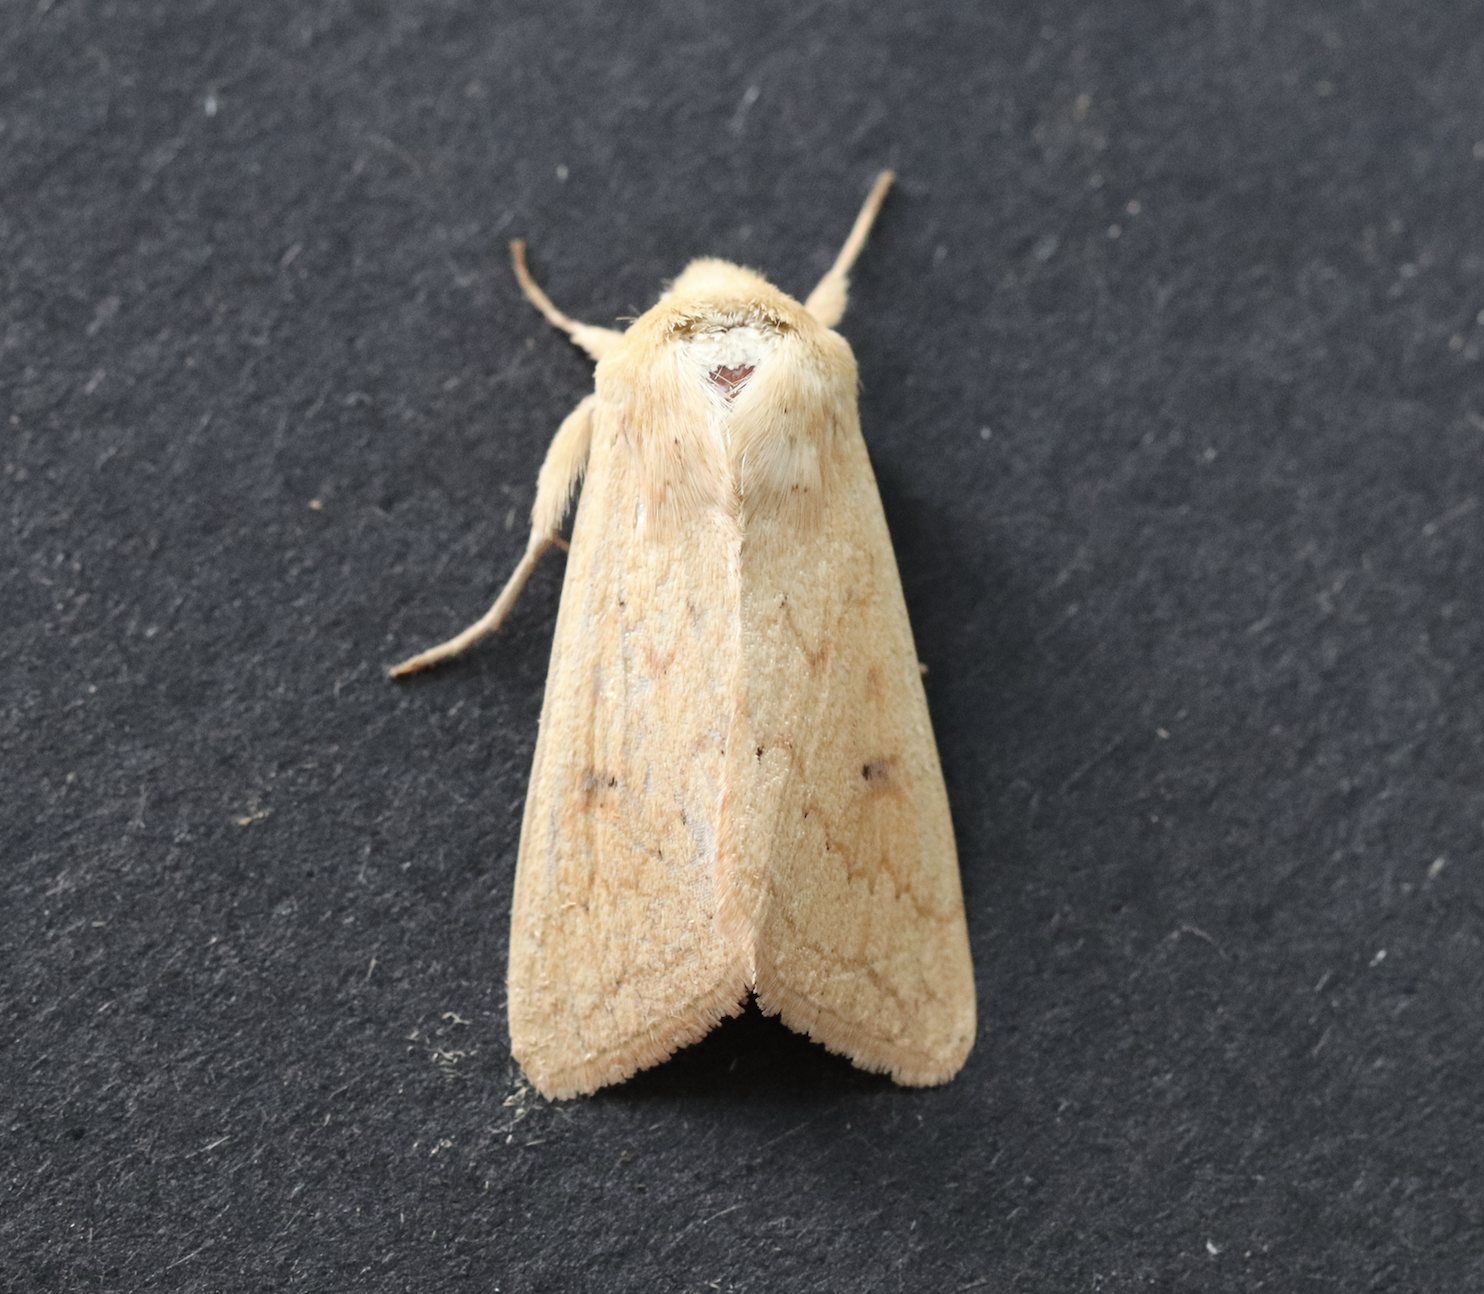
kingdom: Animalia
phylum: Arthropoda
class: Insecta
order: Lepidoptera
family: Noctuidae
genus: Mythimna
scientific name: Mythimna vitellina
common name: Delicate
